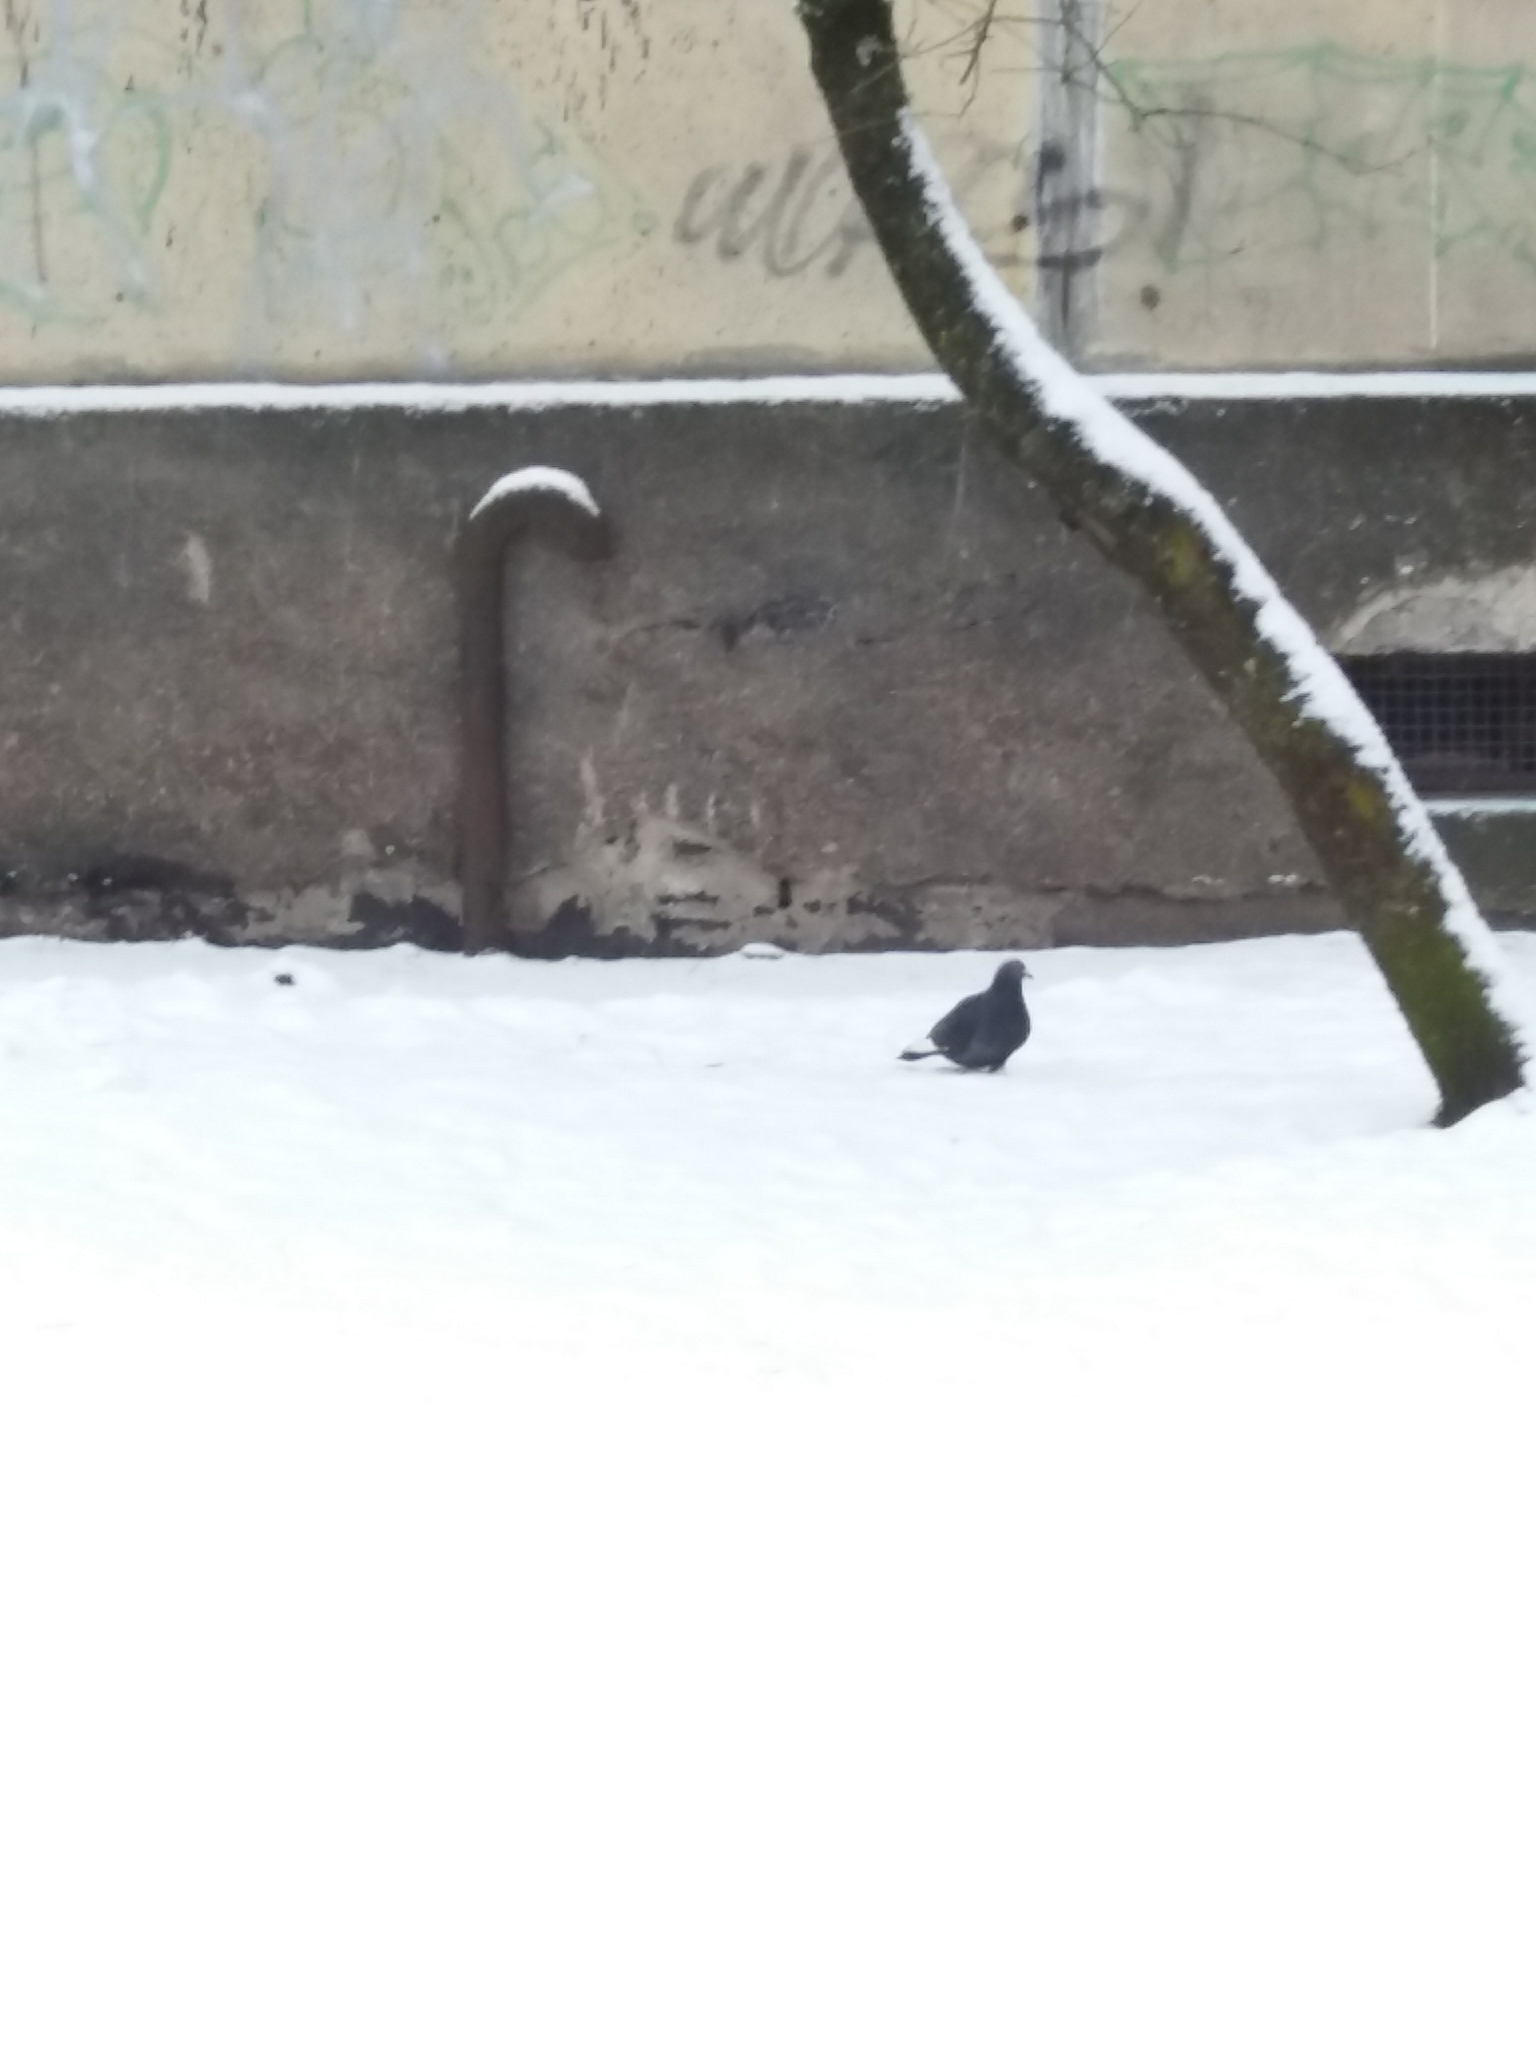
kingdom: Animalia
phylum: Chordata
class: Aves
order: Columbiformes
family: Columbidae
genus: Columba
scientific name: Columba livia
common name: Rock pigeon
